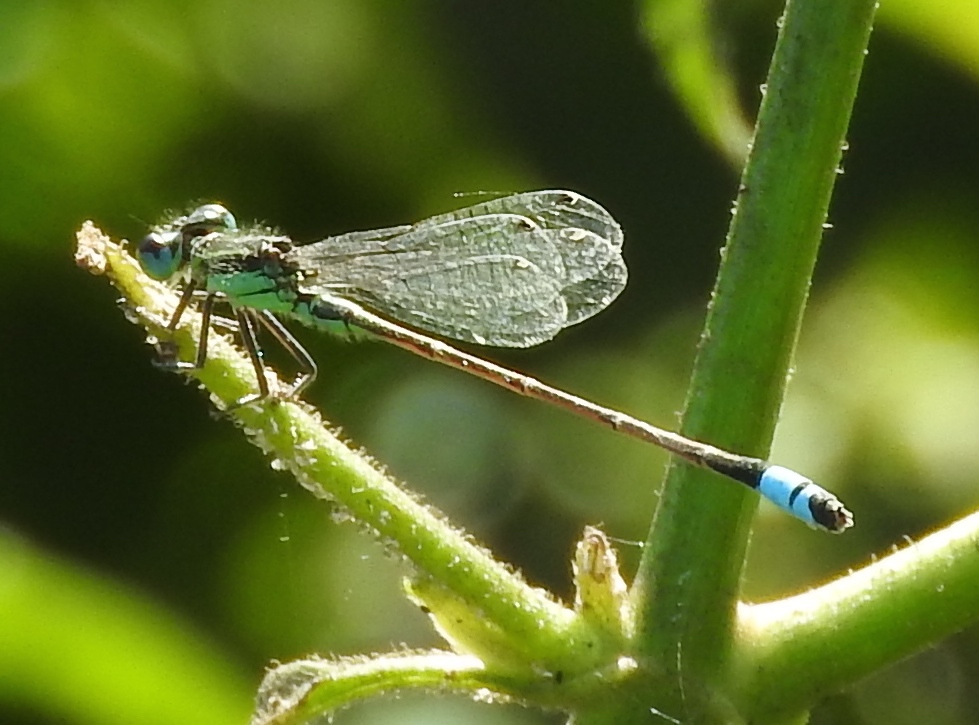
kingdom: Animalia
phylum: Arthropoda
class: Insecta
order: Odonata
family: Coenagrionidae
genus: Ischnura
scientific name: Ischnura
